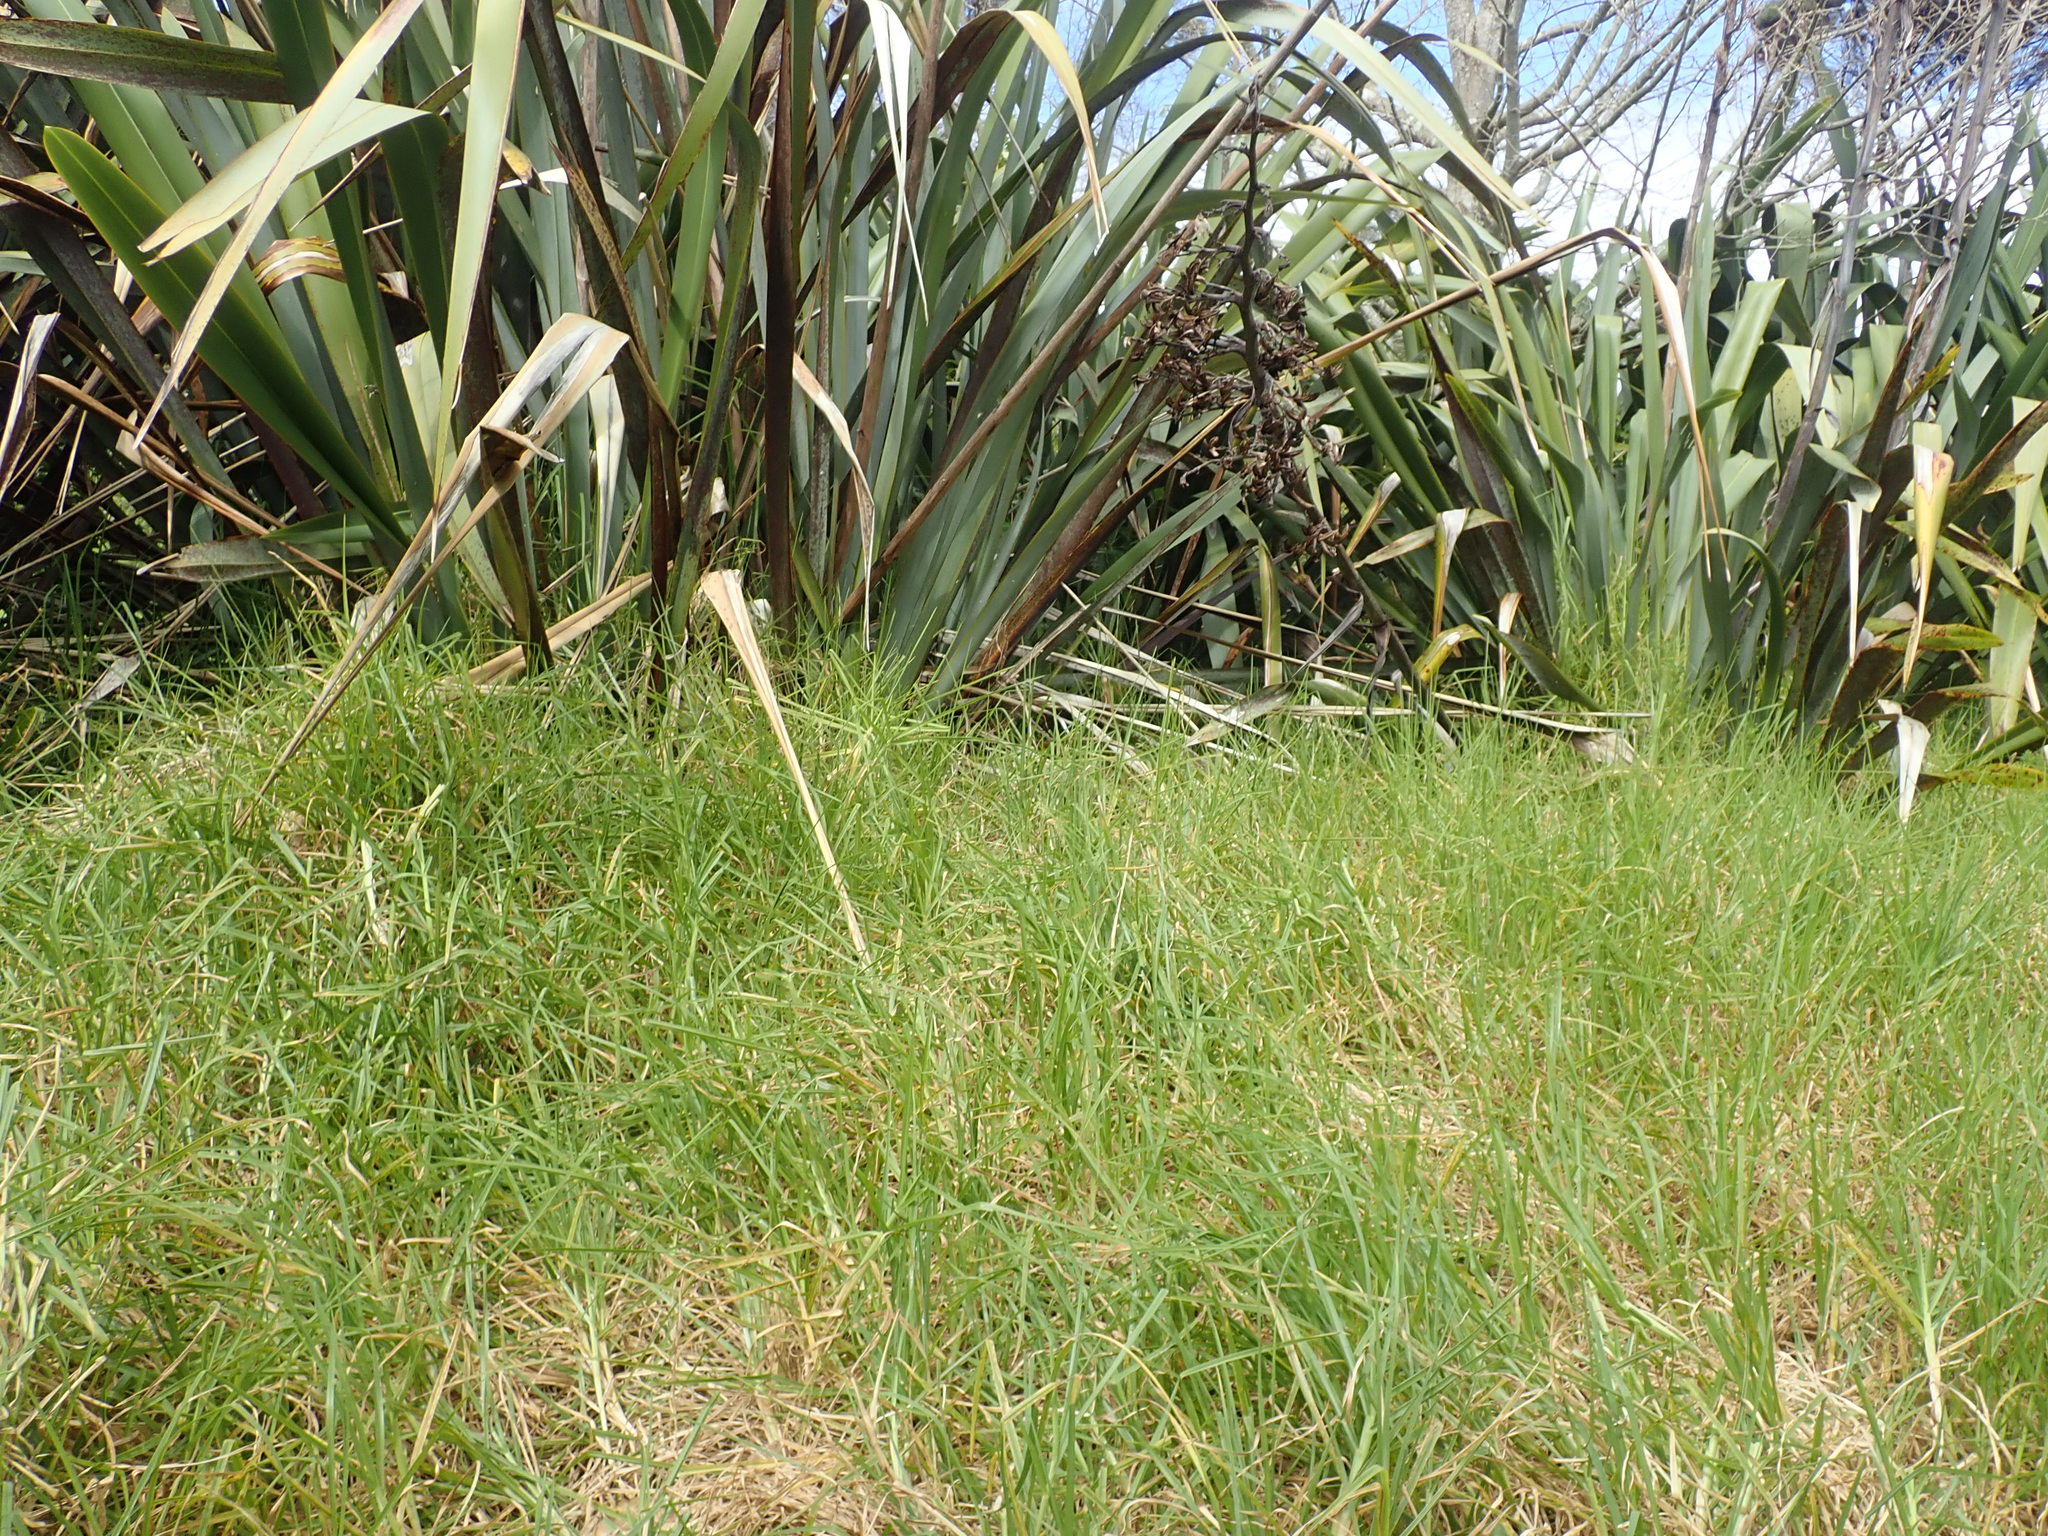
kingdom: Plantae
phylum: Tracheophyta
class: Liliopsida
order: Poales
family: Poaceae
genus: Cenchrus
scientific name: Cenchrus clandestinus
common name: Kikuyugrass
